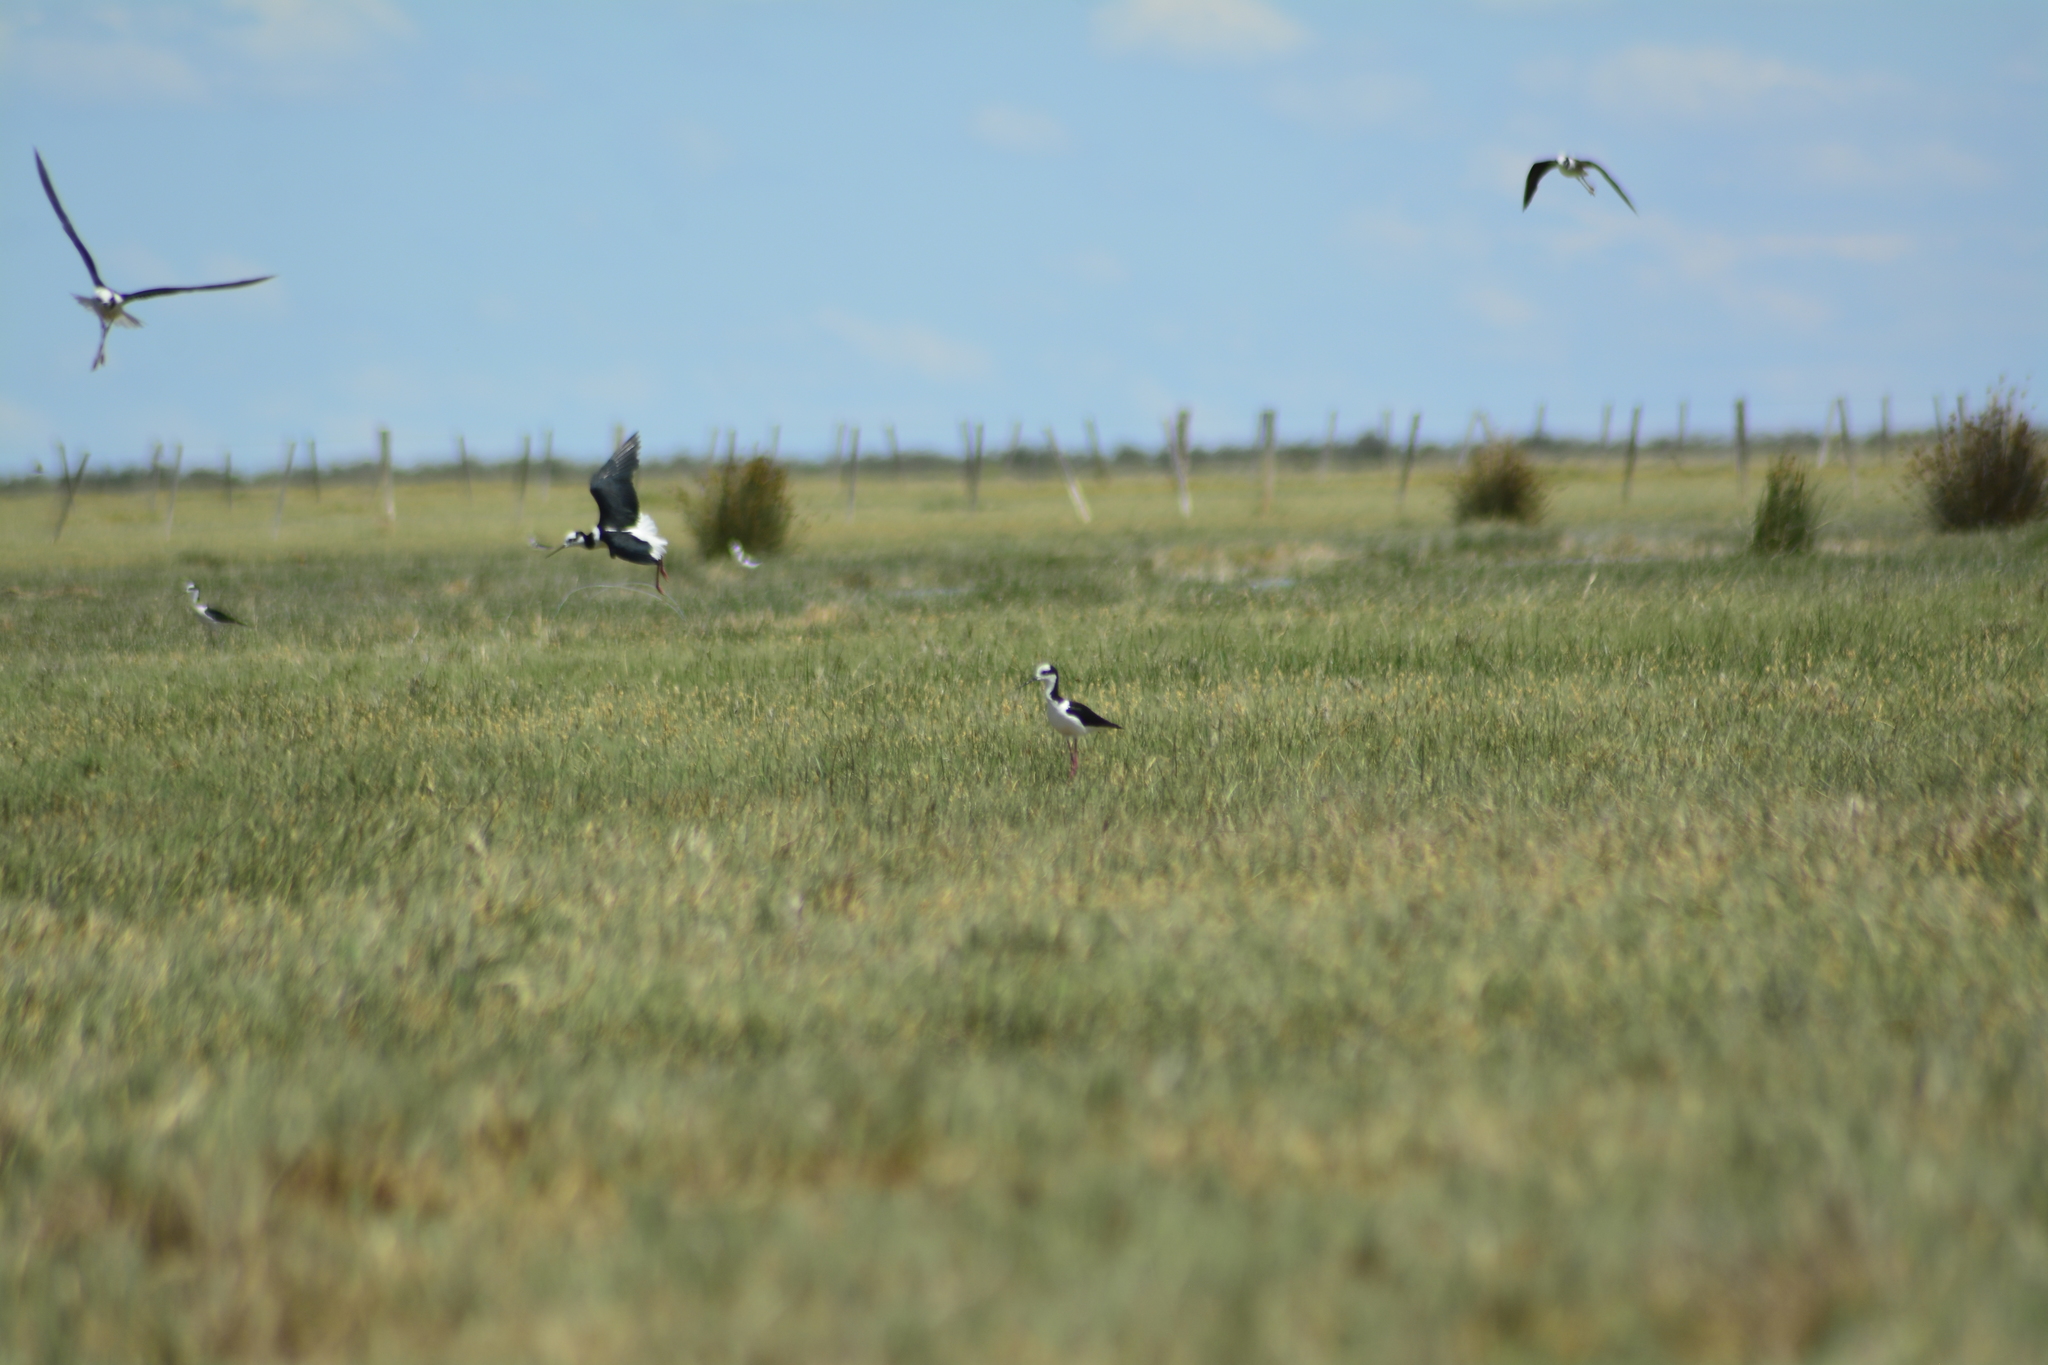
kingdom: Animalia
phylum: Chordata
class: Aves
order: Charadriiformes
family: Recurvirostridae
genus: Himantopus
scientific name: Himantopus mexicanus
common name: Black-necked stilt
